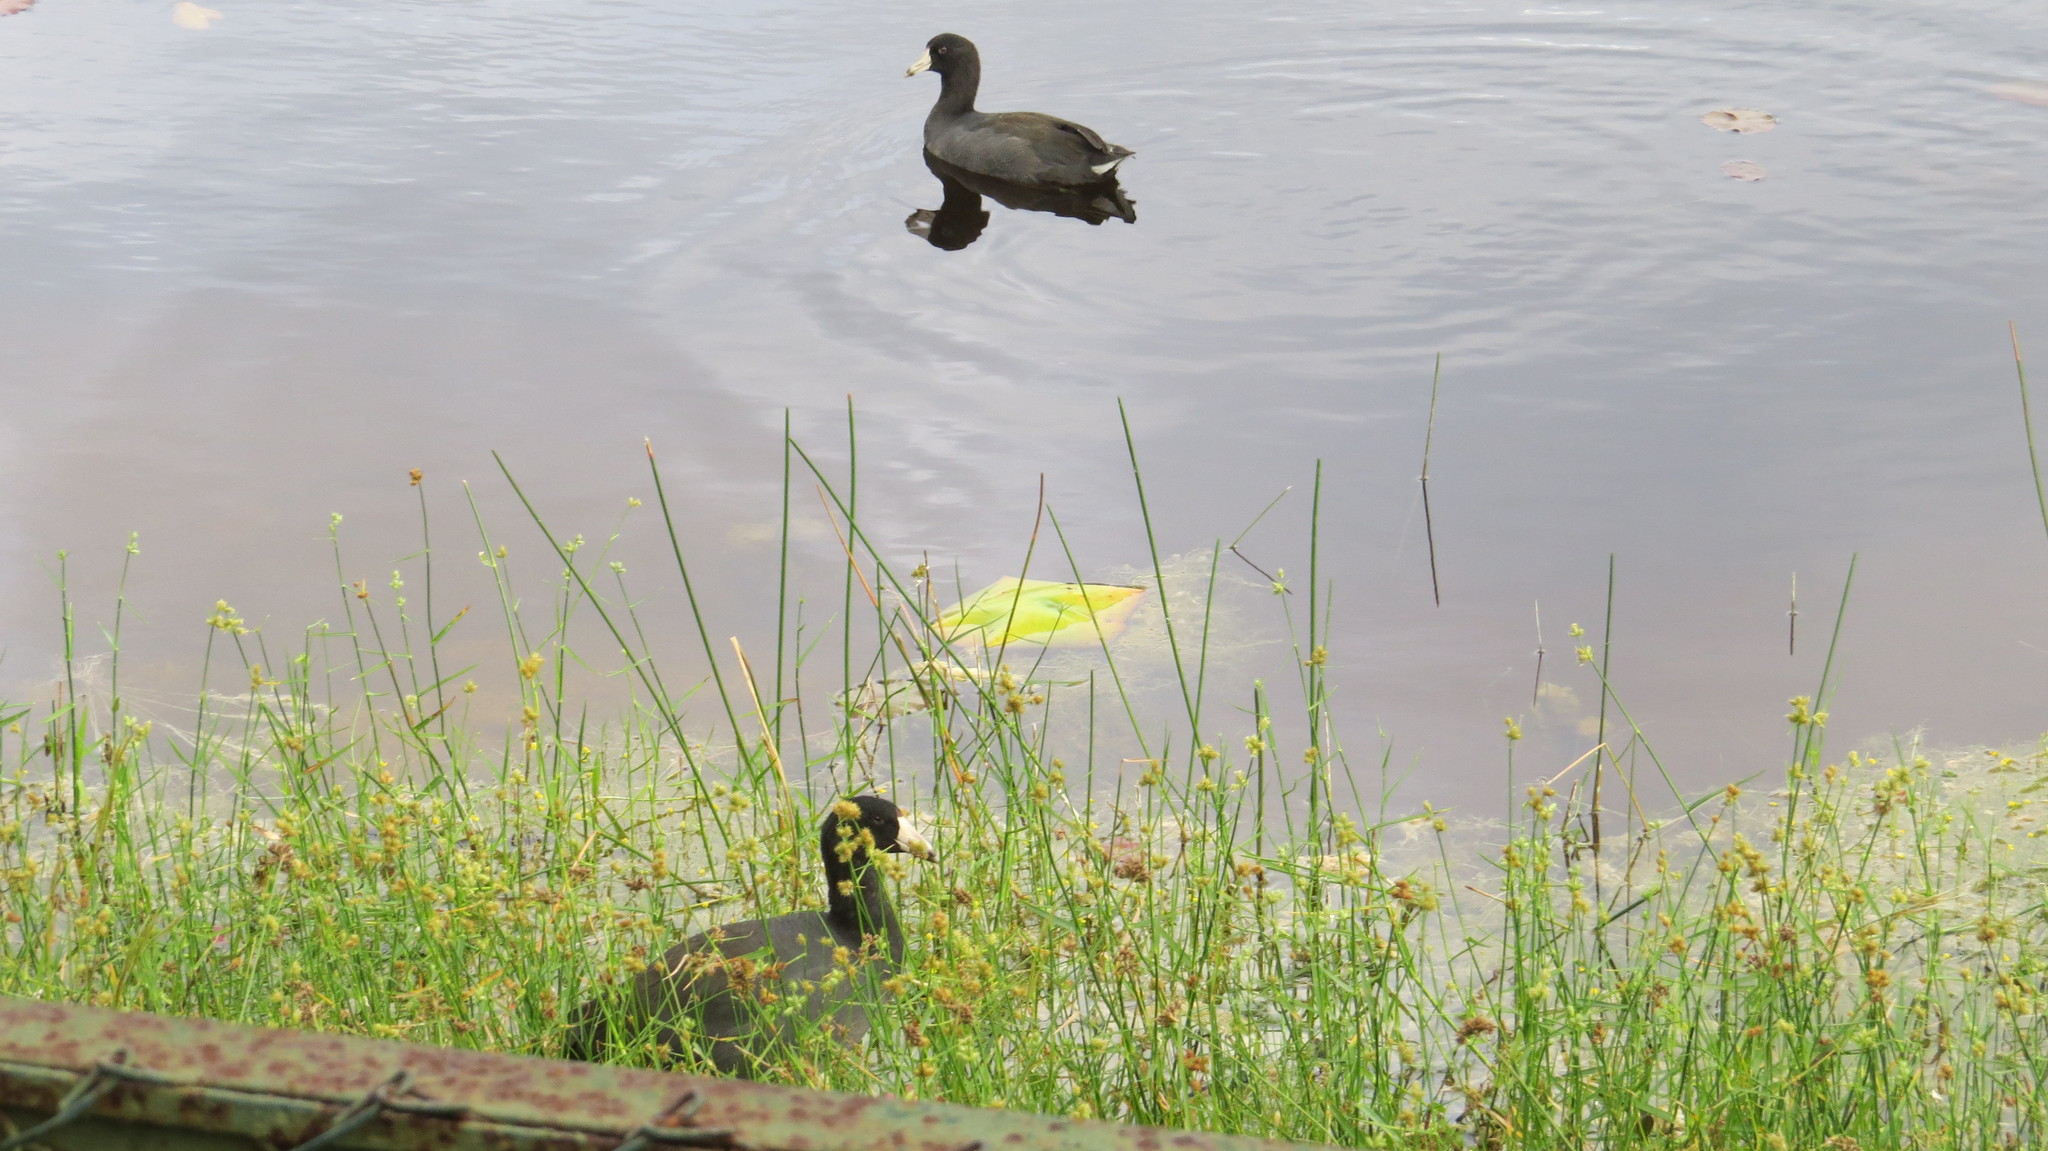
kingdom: Animalia
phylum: Chordata
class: Aves
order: Gruiformes
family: Rallidae
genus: Fulica
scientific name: Fulica americana
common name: American coot
